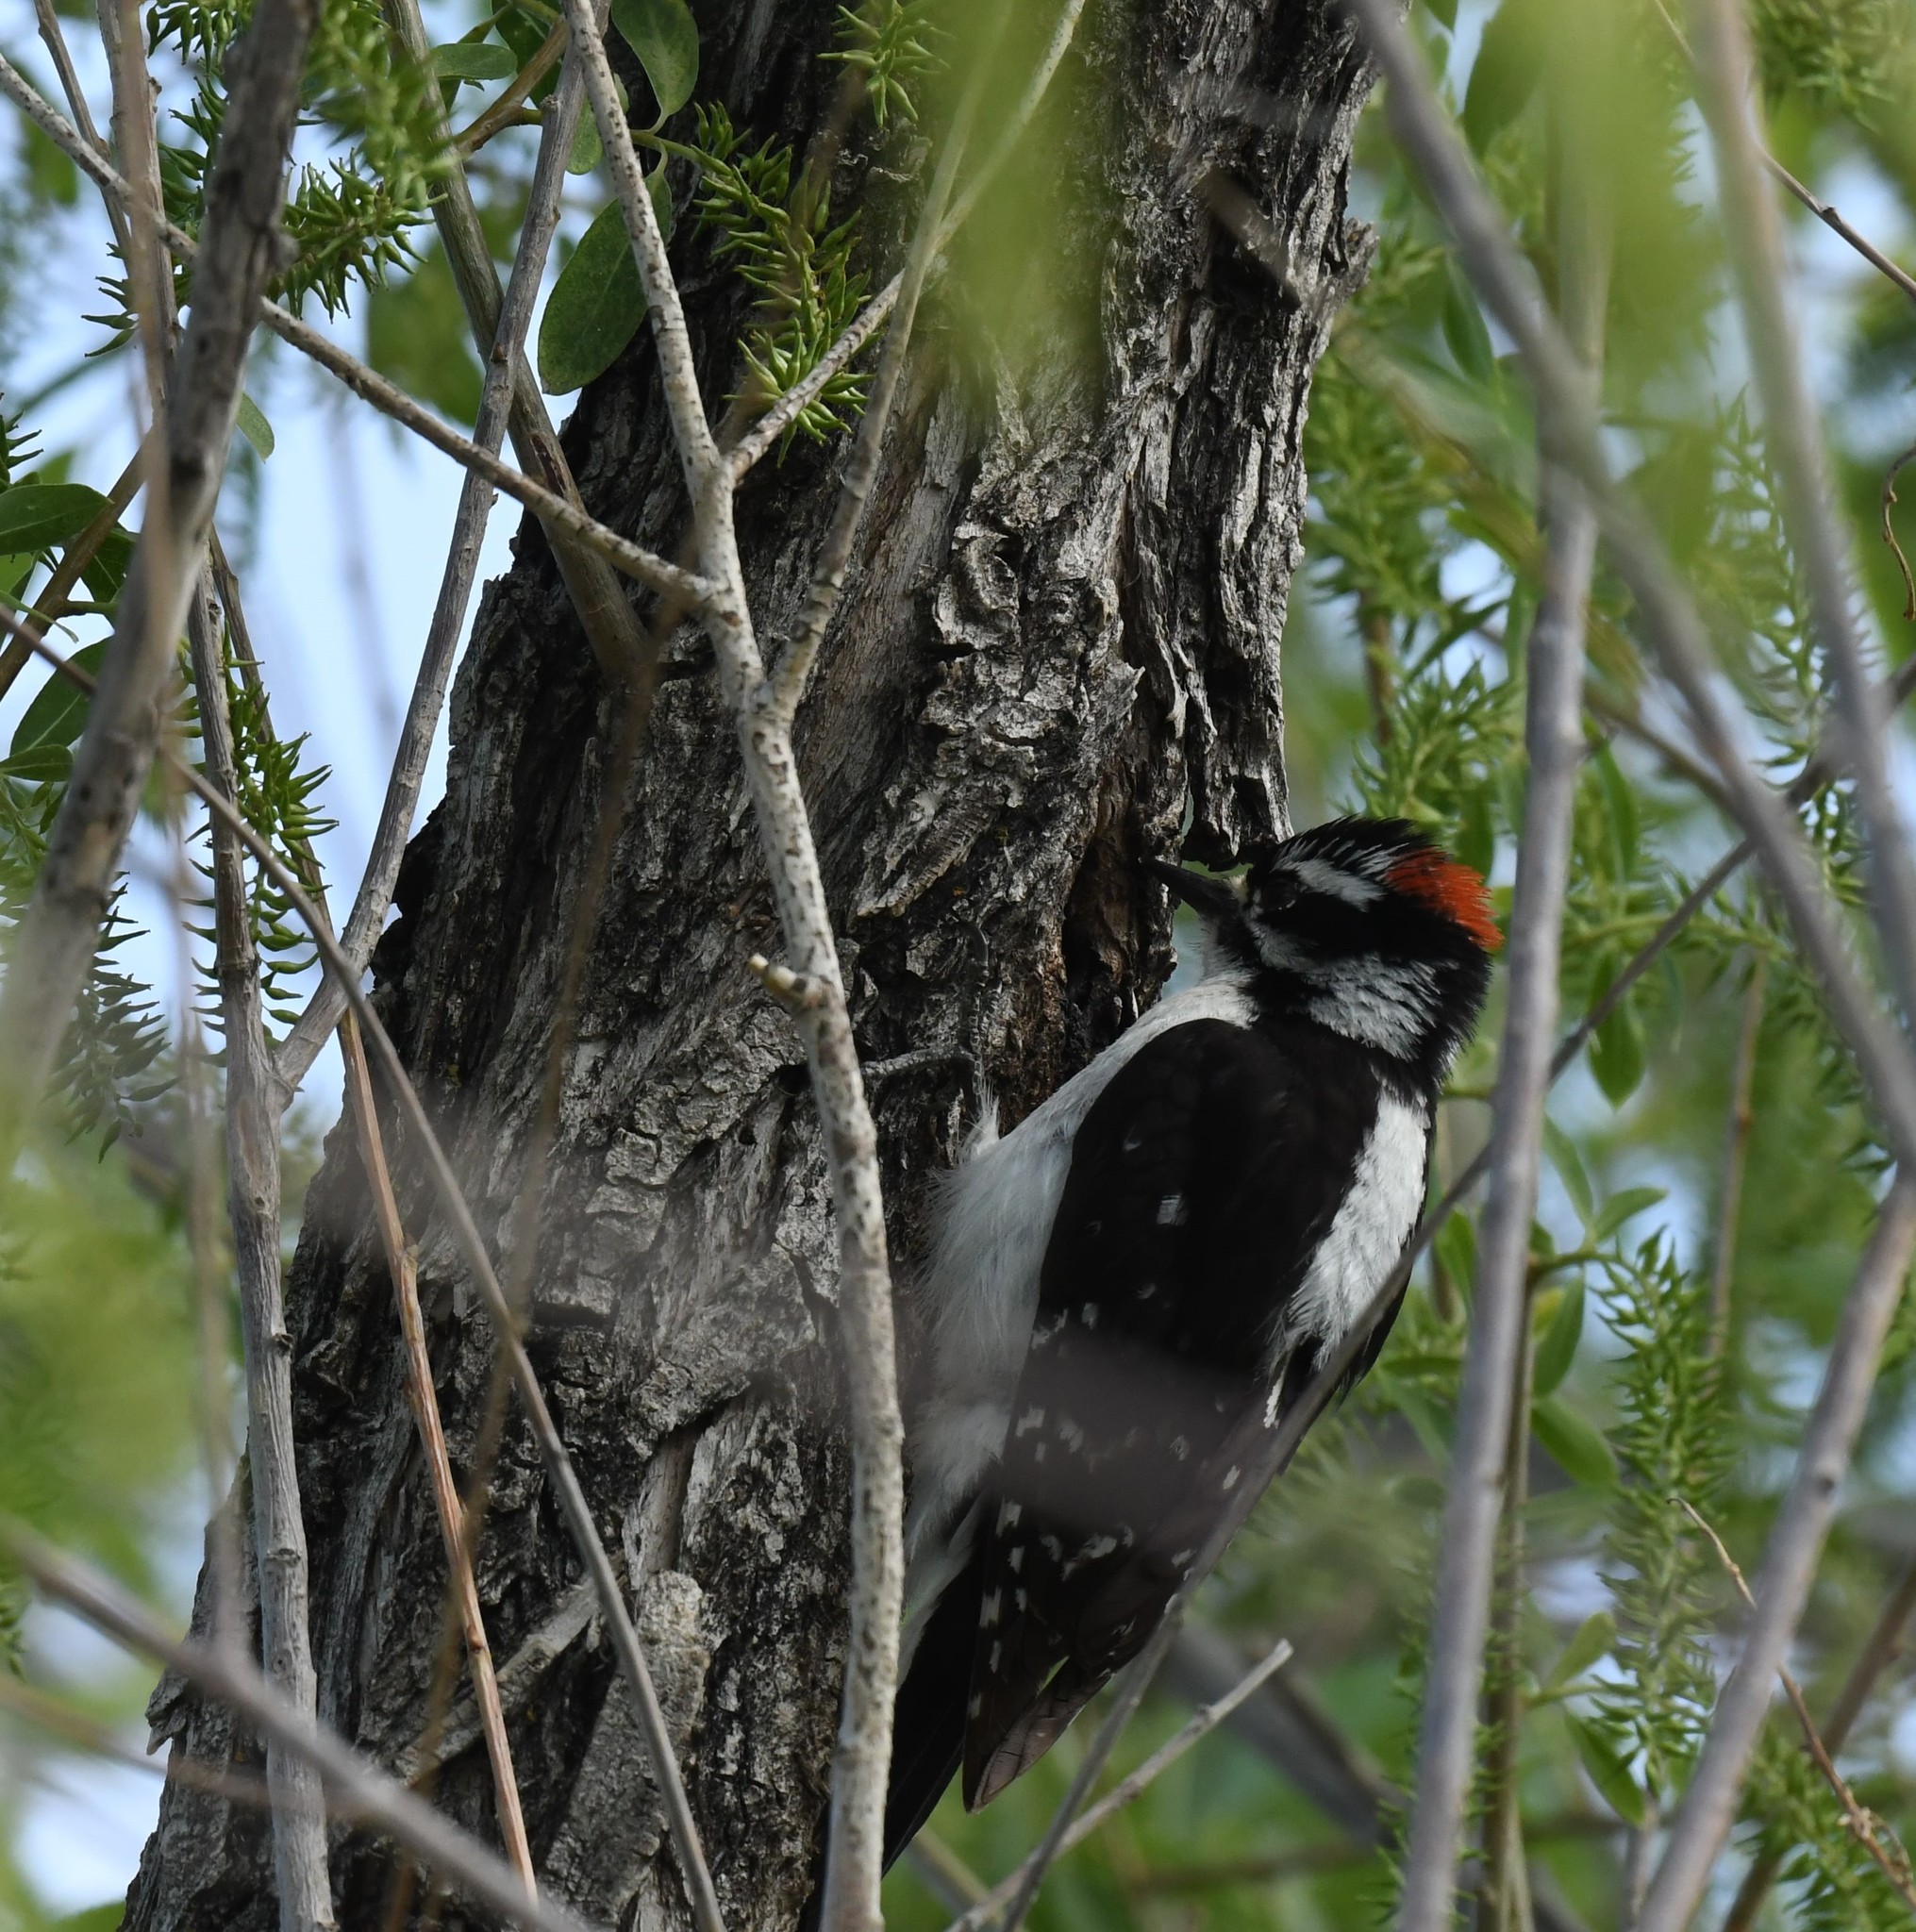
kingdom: Animalia
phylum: Chordata
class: Aves
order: Piciformes
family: Picidae
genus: Dryobates
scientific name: Dryobates pubescens
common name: Downy woodpecker
